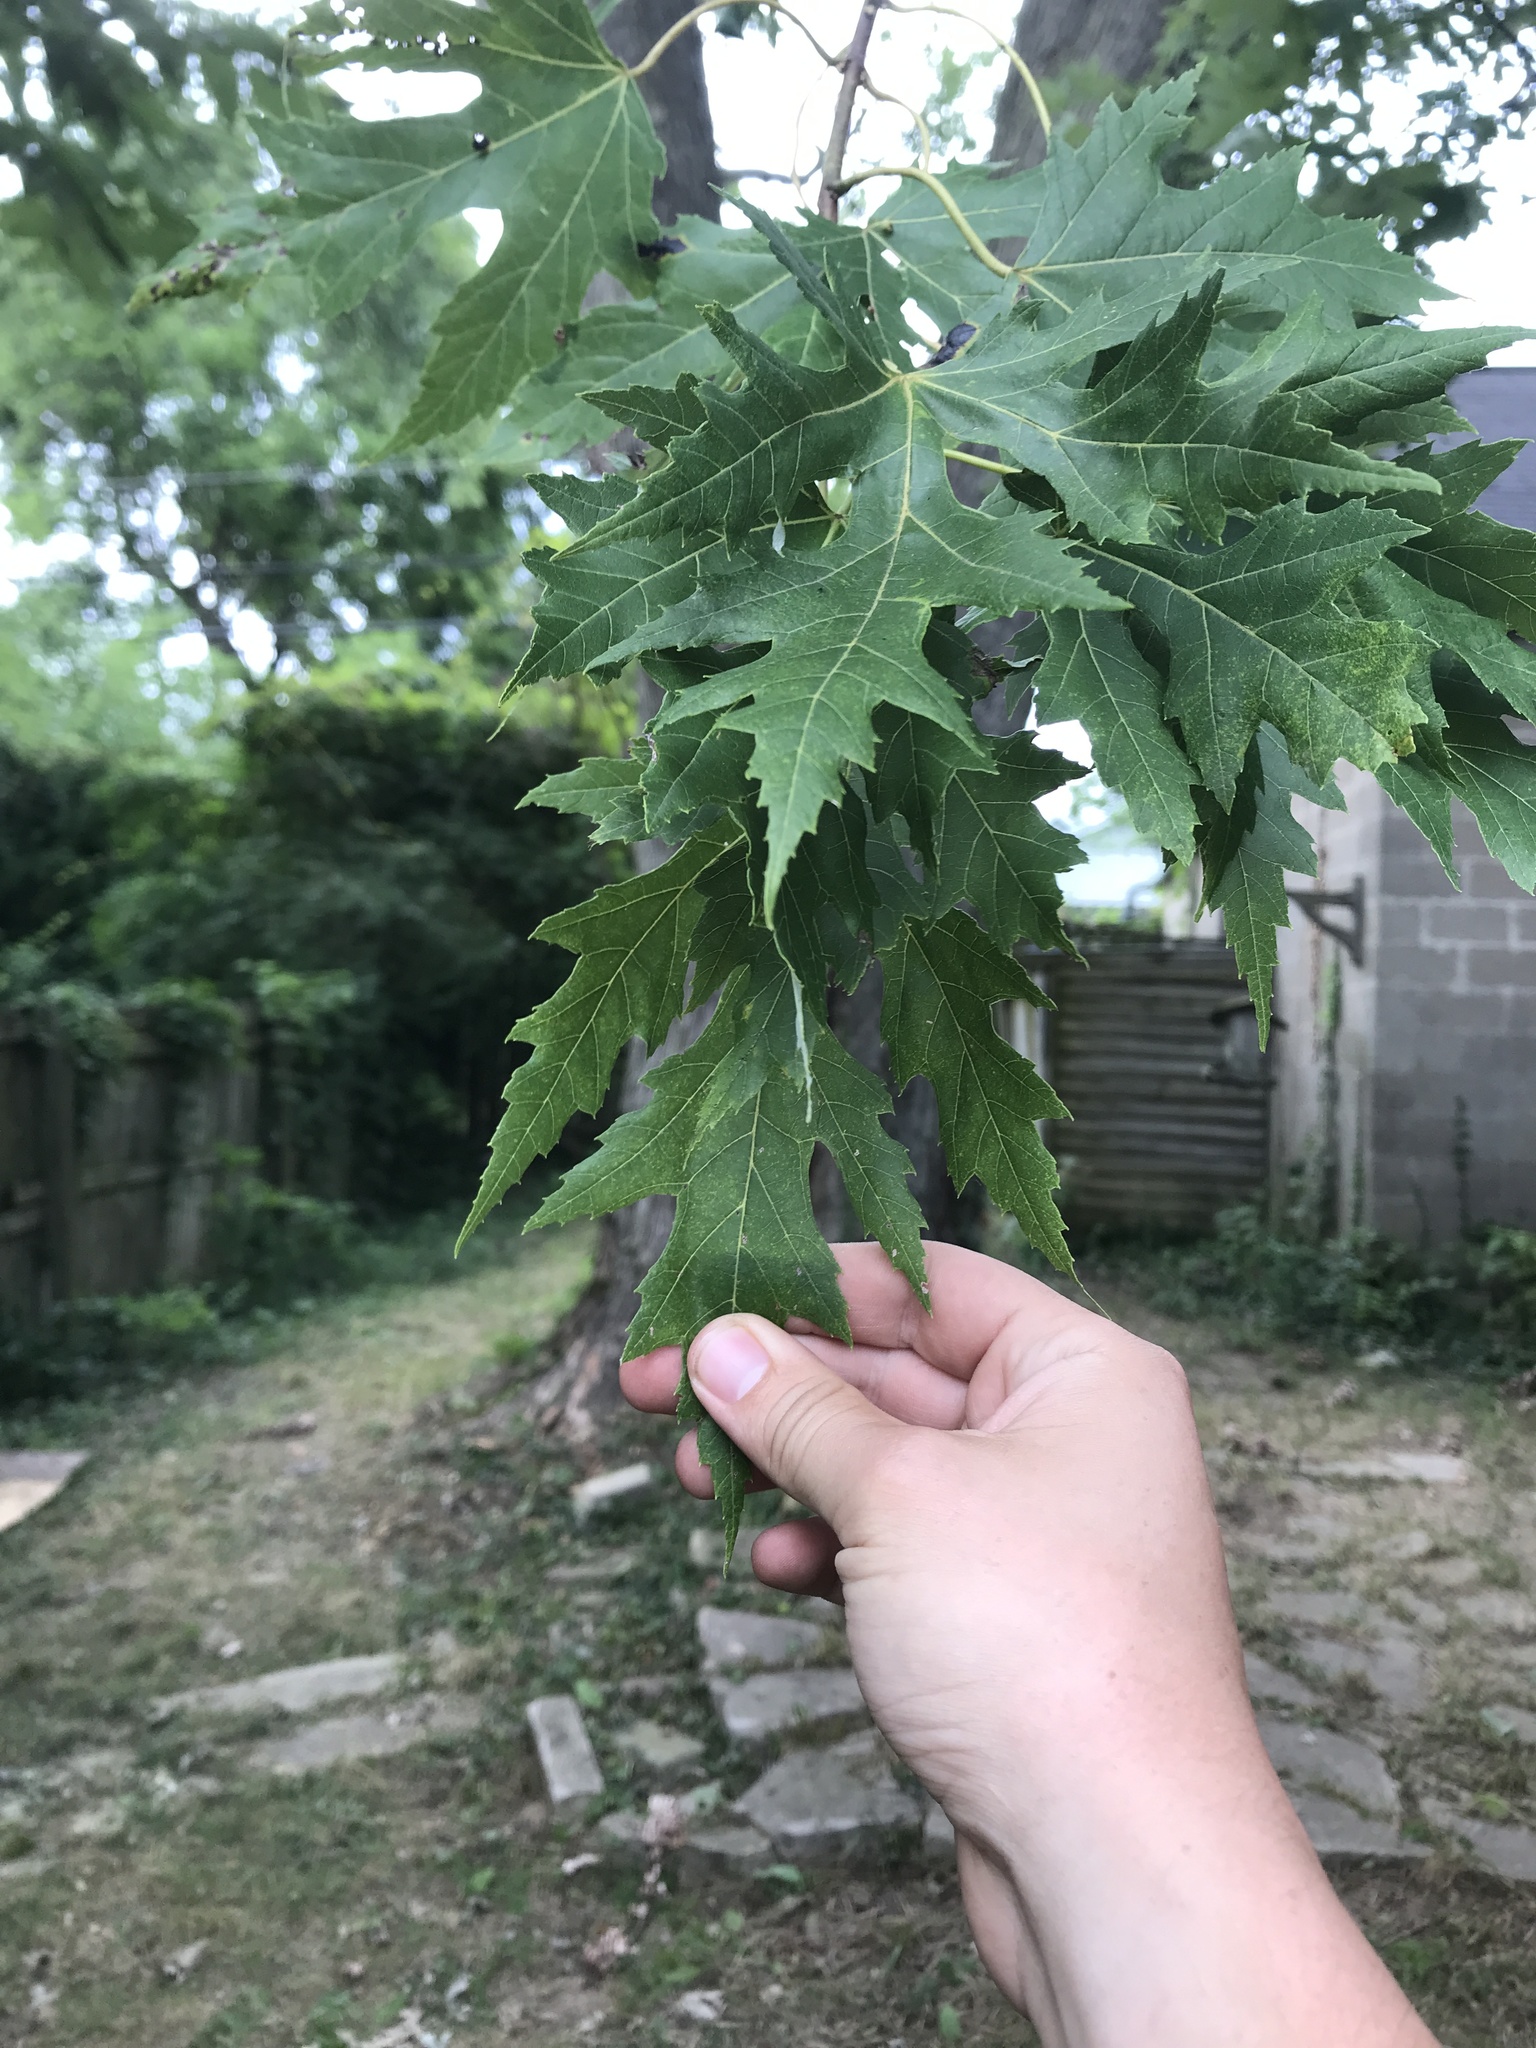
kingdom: Plantae
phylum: Tracheophyta
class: Magnoliopsida
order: Sapindales
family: Sapindaceae
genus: Acer
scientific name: Acer saccharinum
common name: Silver maple
